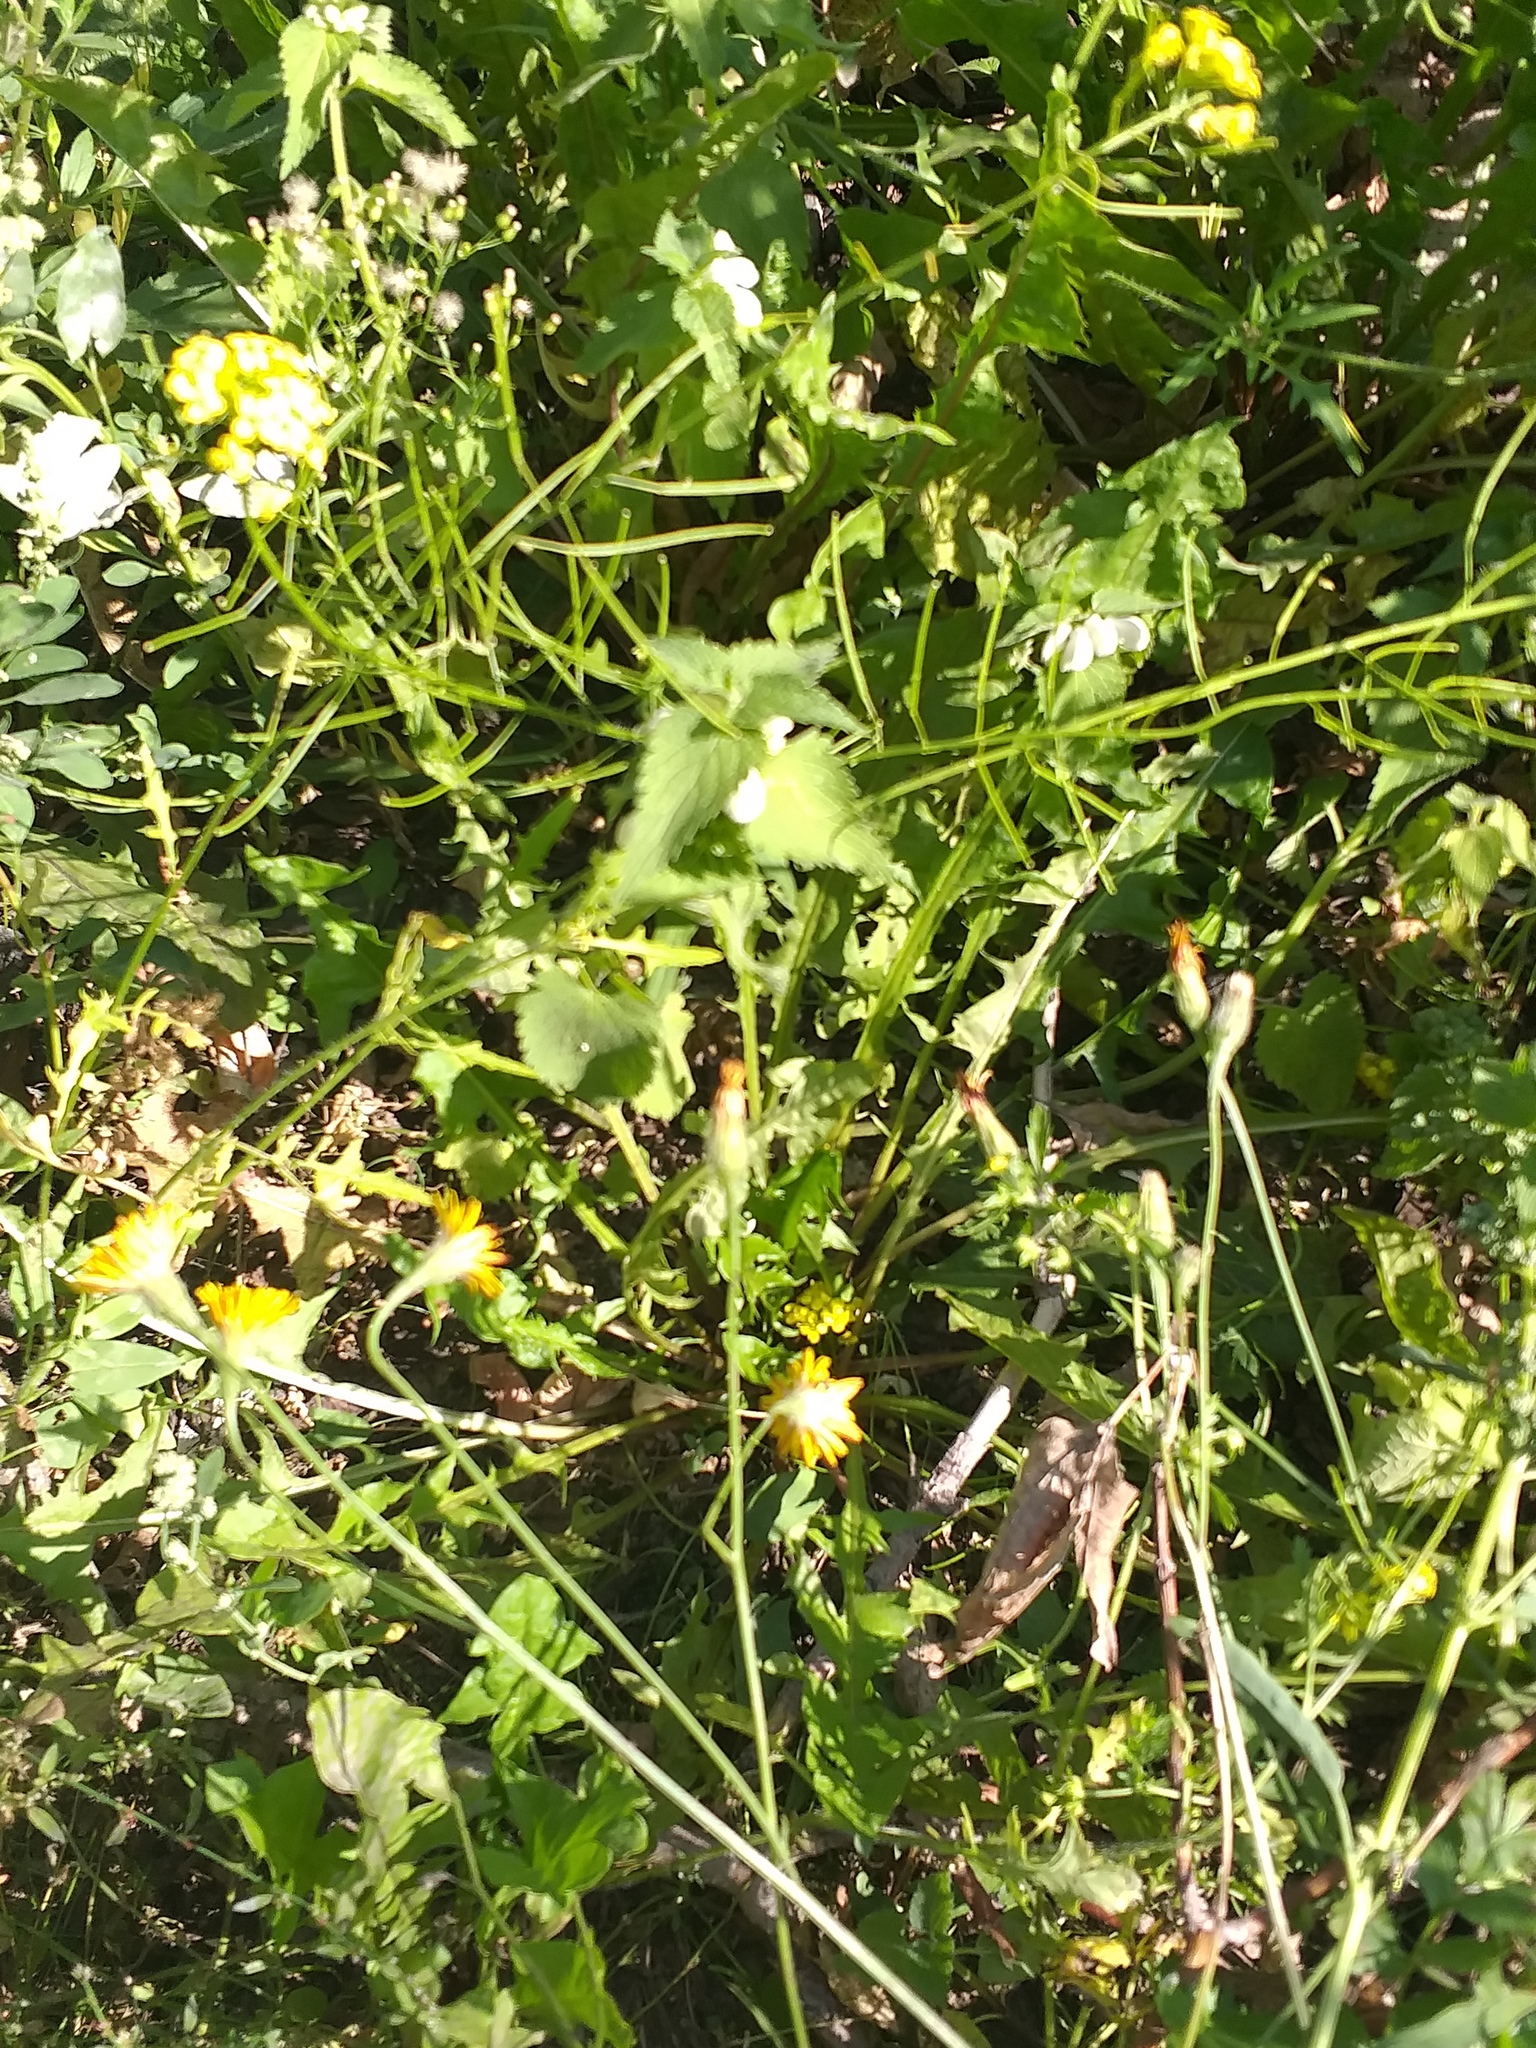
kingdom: Plantae
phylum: Tracheophyta
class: Magnoliopsida
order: Lamiales
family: Lamiaceae
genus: Lamium
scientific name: Lamium album
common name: White dead-nettle
